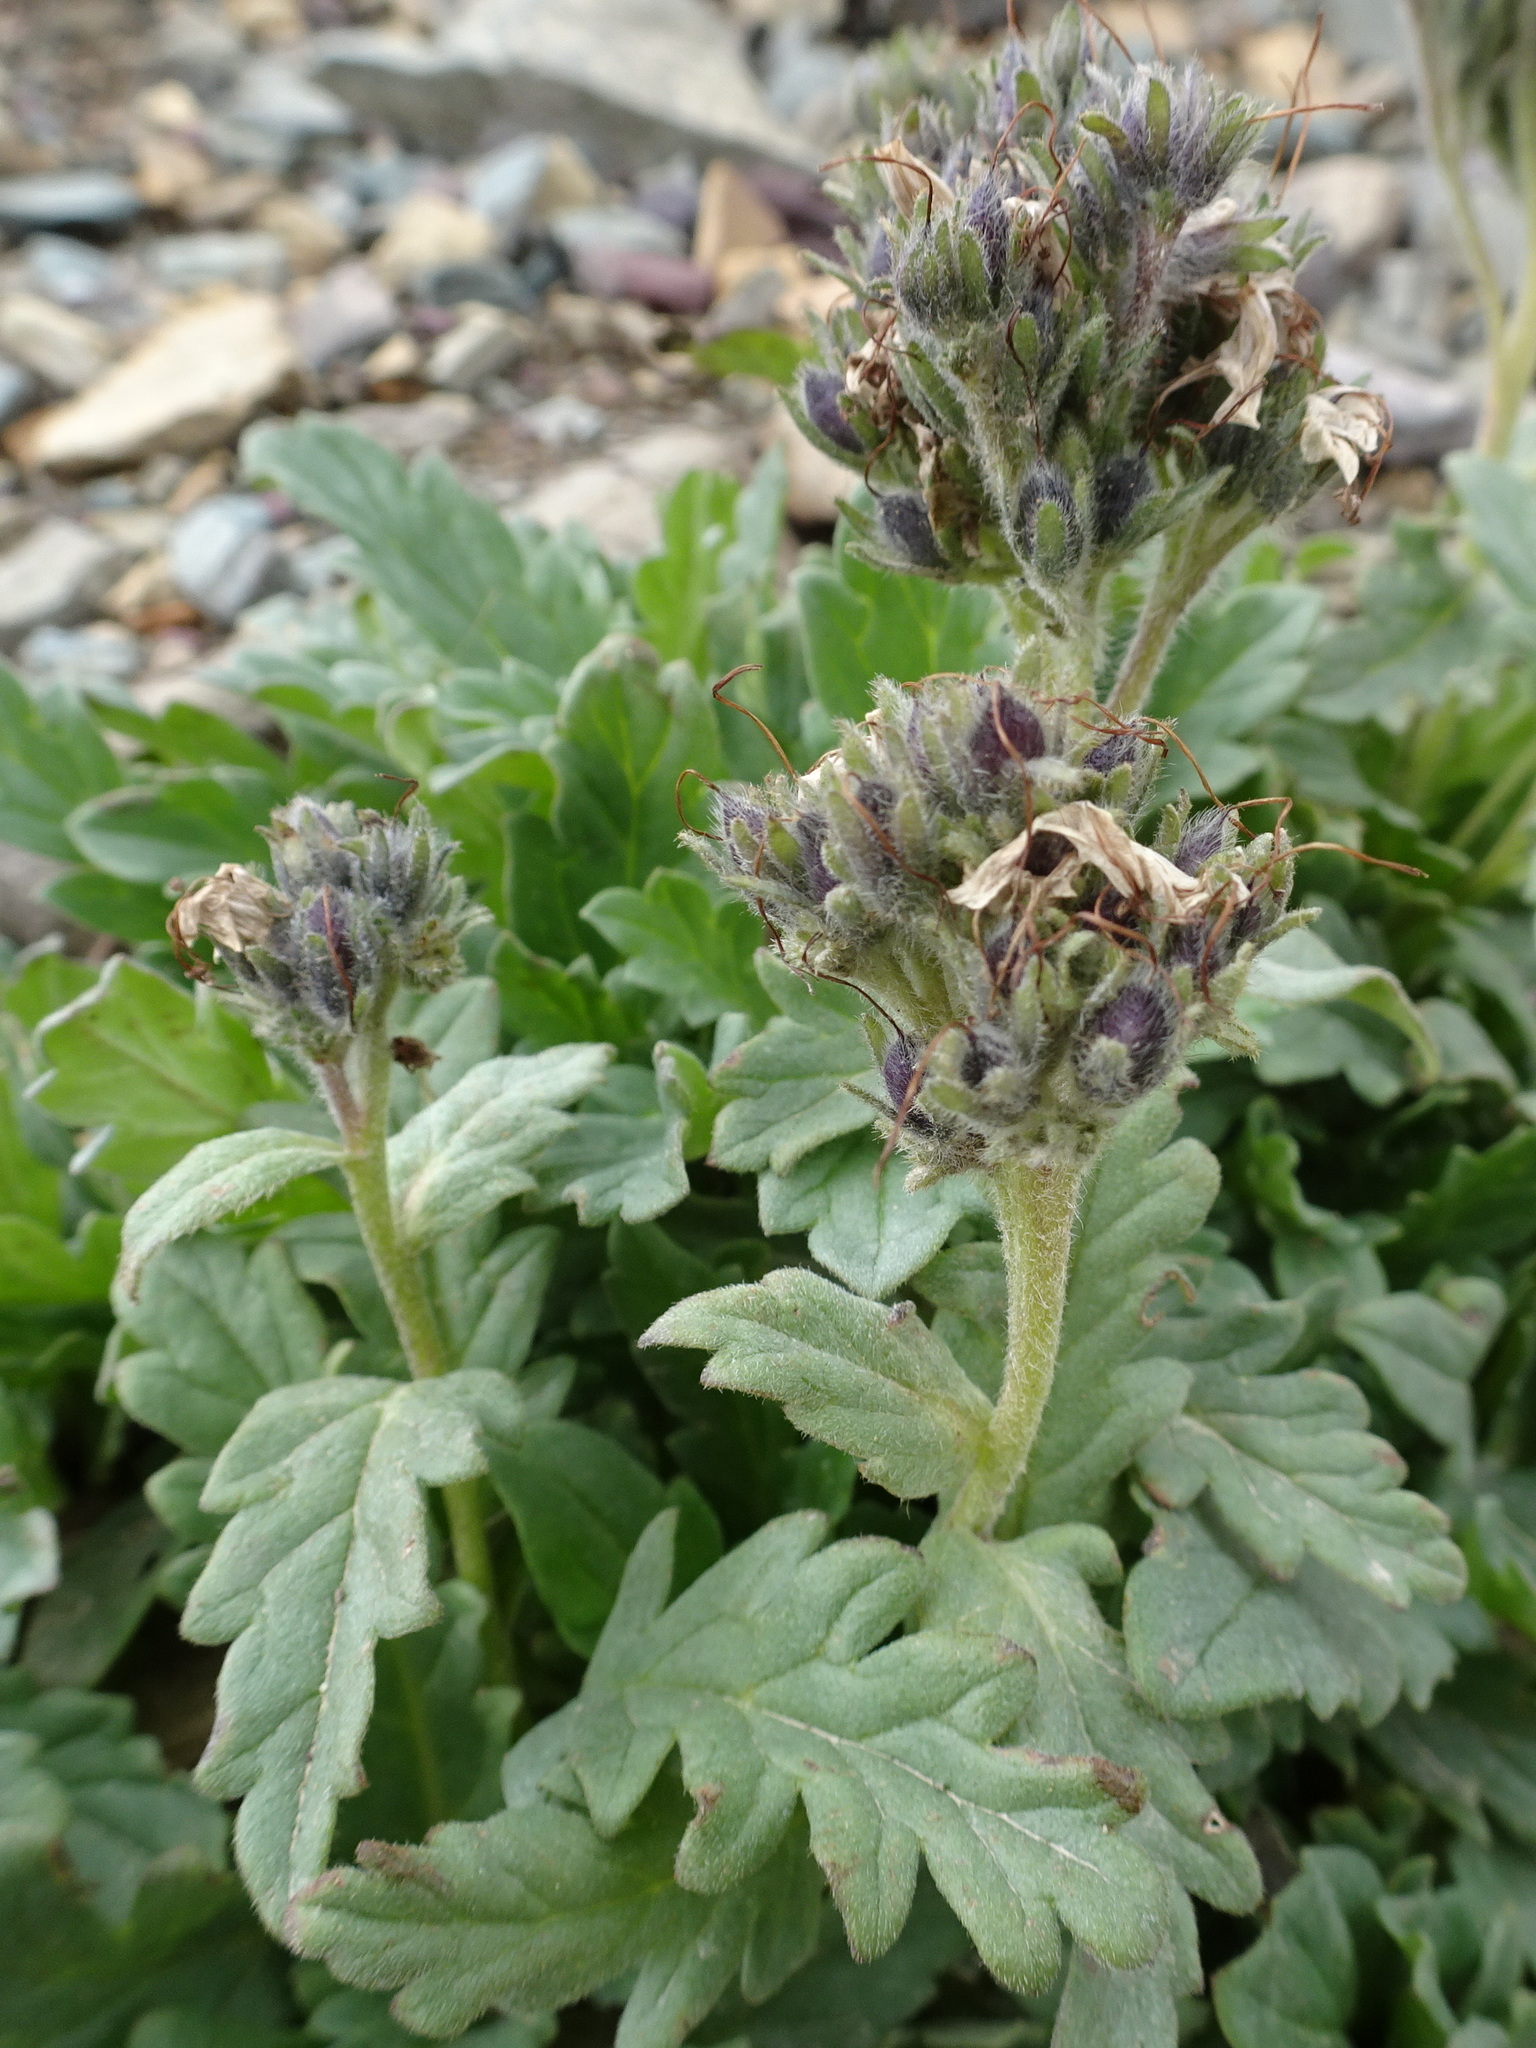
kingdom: Plantae
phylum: Tracheophyta
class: Magnoliopsida
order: Boraginales
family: Hydrophyllaceae
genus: Phacelia
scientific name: Phacelia lyallii
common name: Lyall's phacelia
